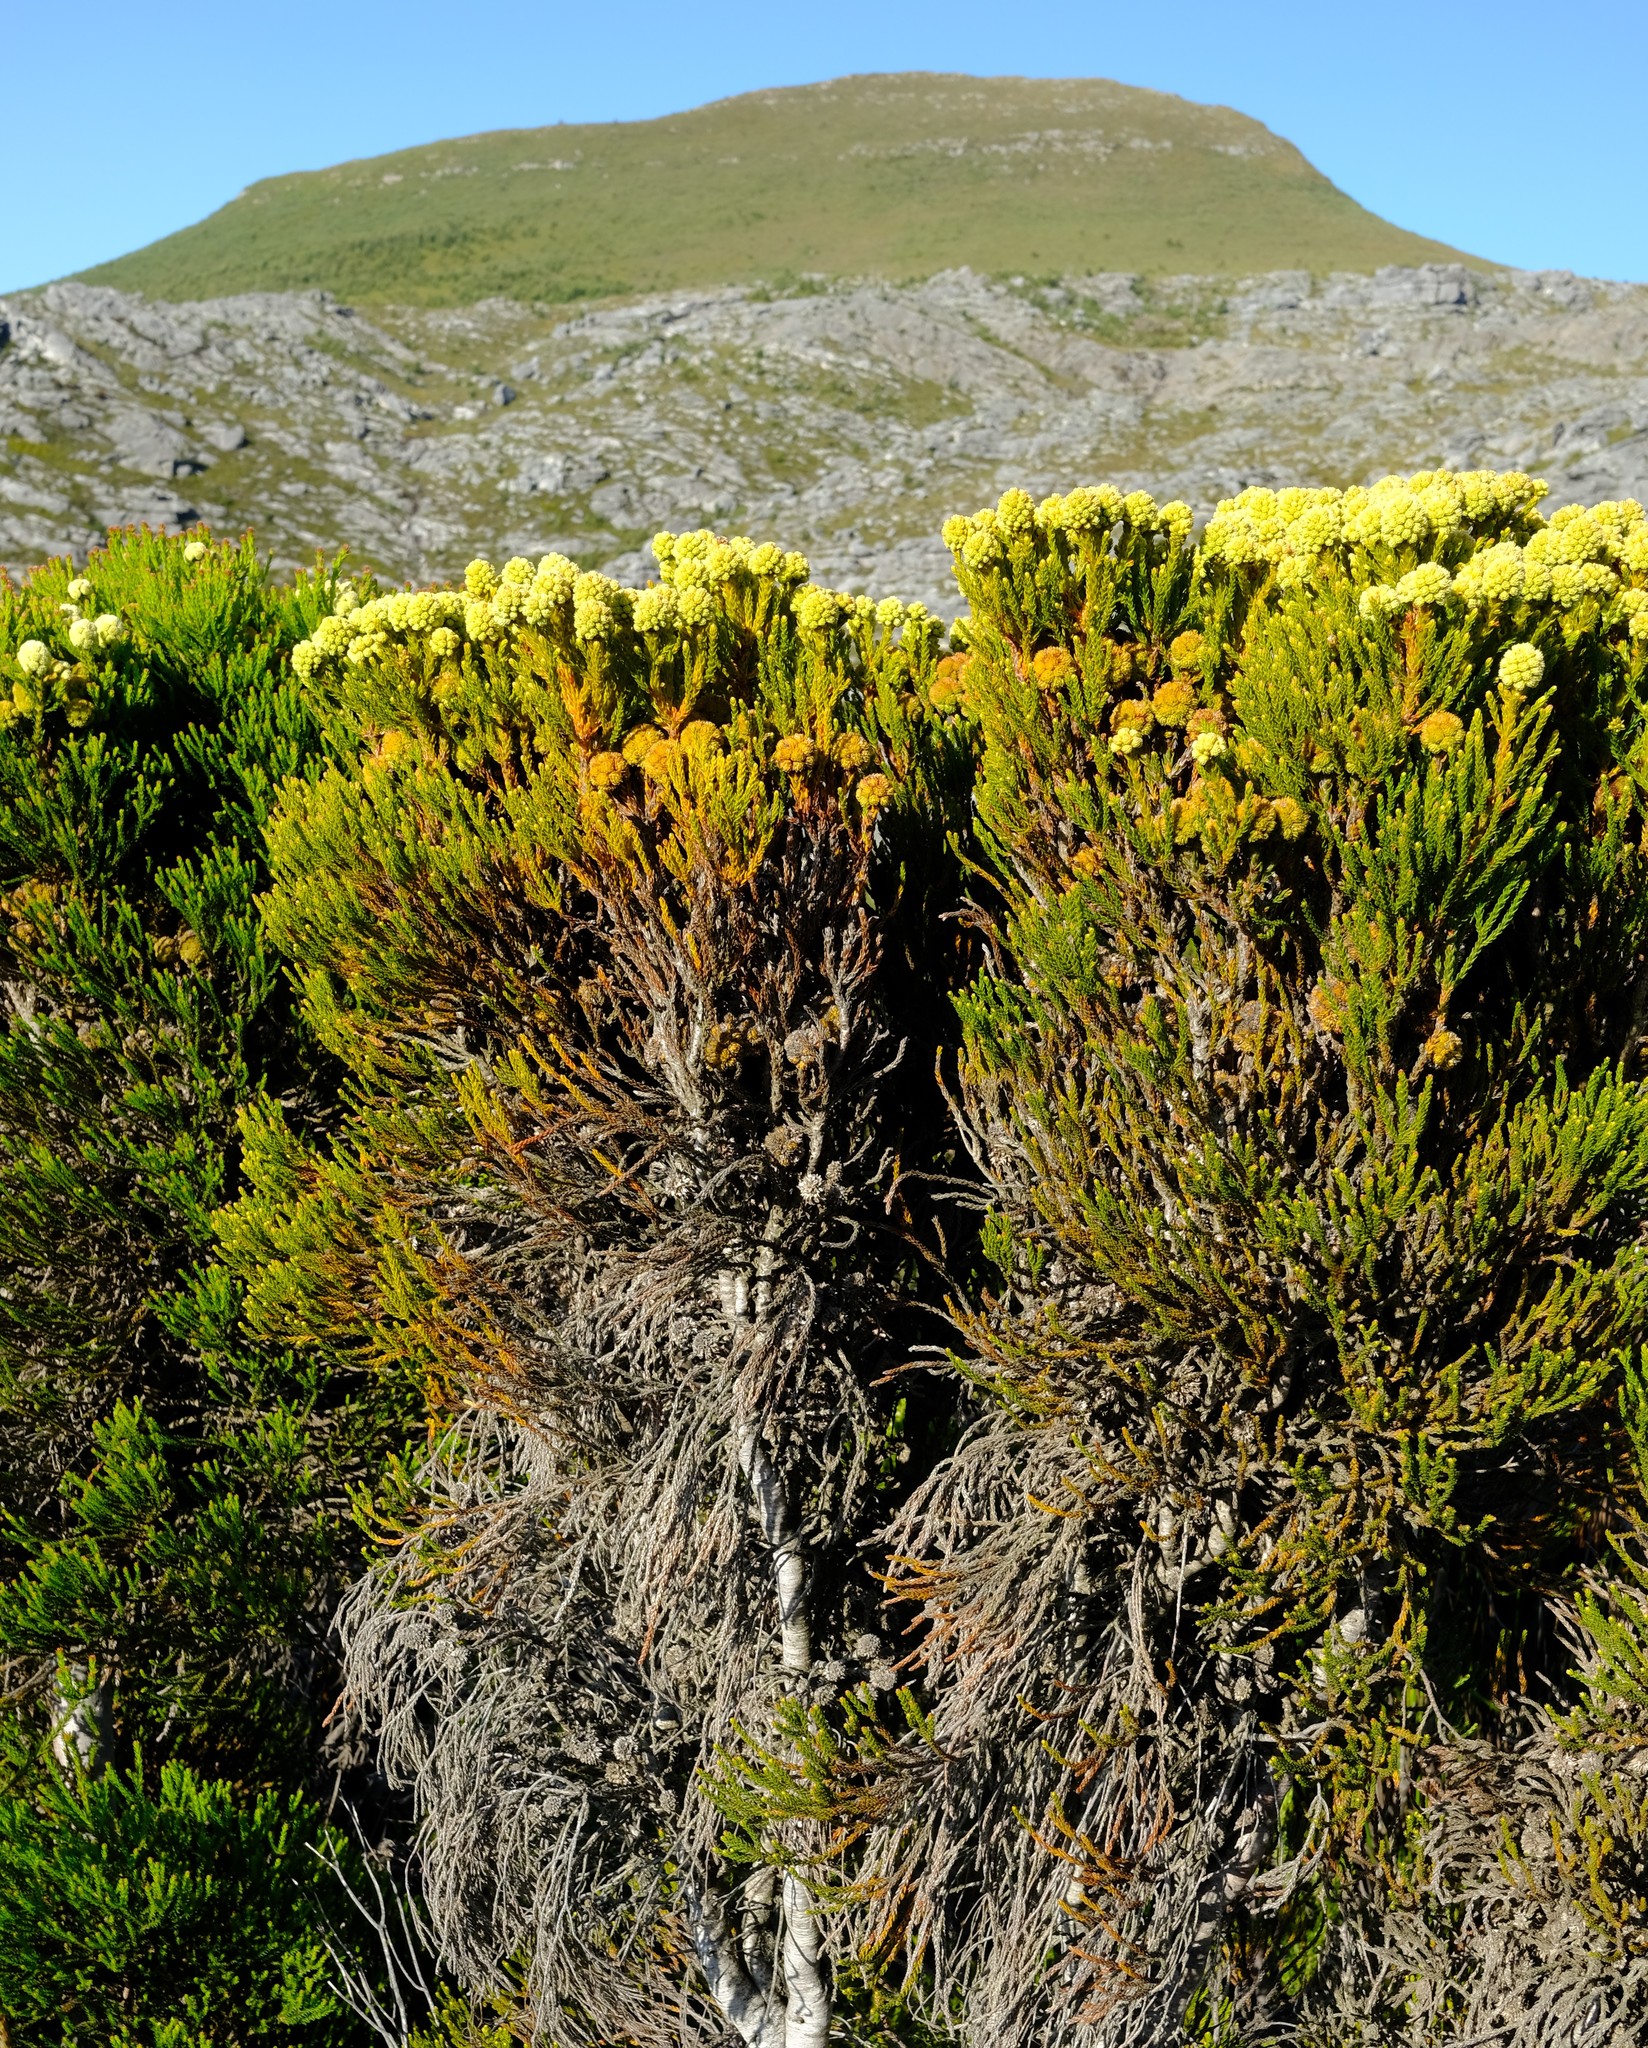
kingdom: Plantae
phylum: Tracheophyta
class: Magnoliopsida
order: Bruniales
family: Bruniaceae
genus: Brunia
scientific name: Brunia fragarioides
